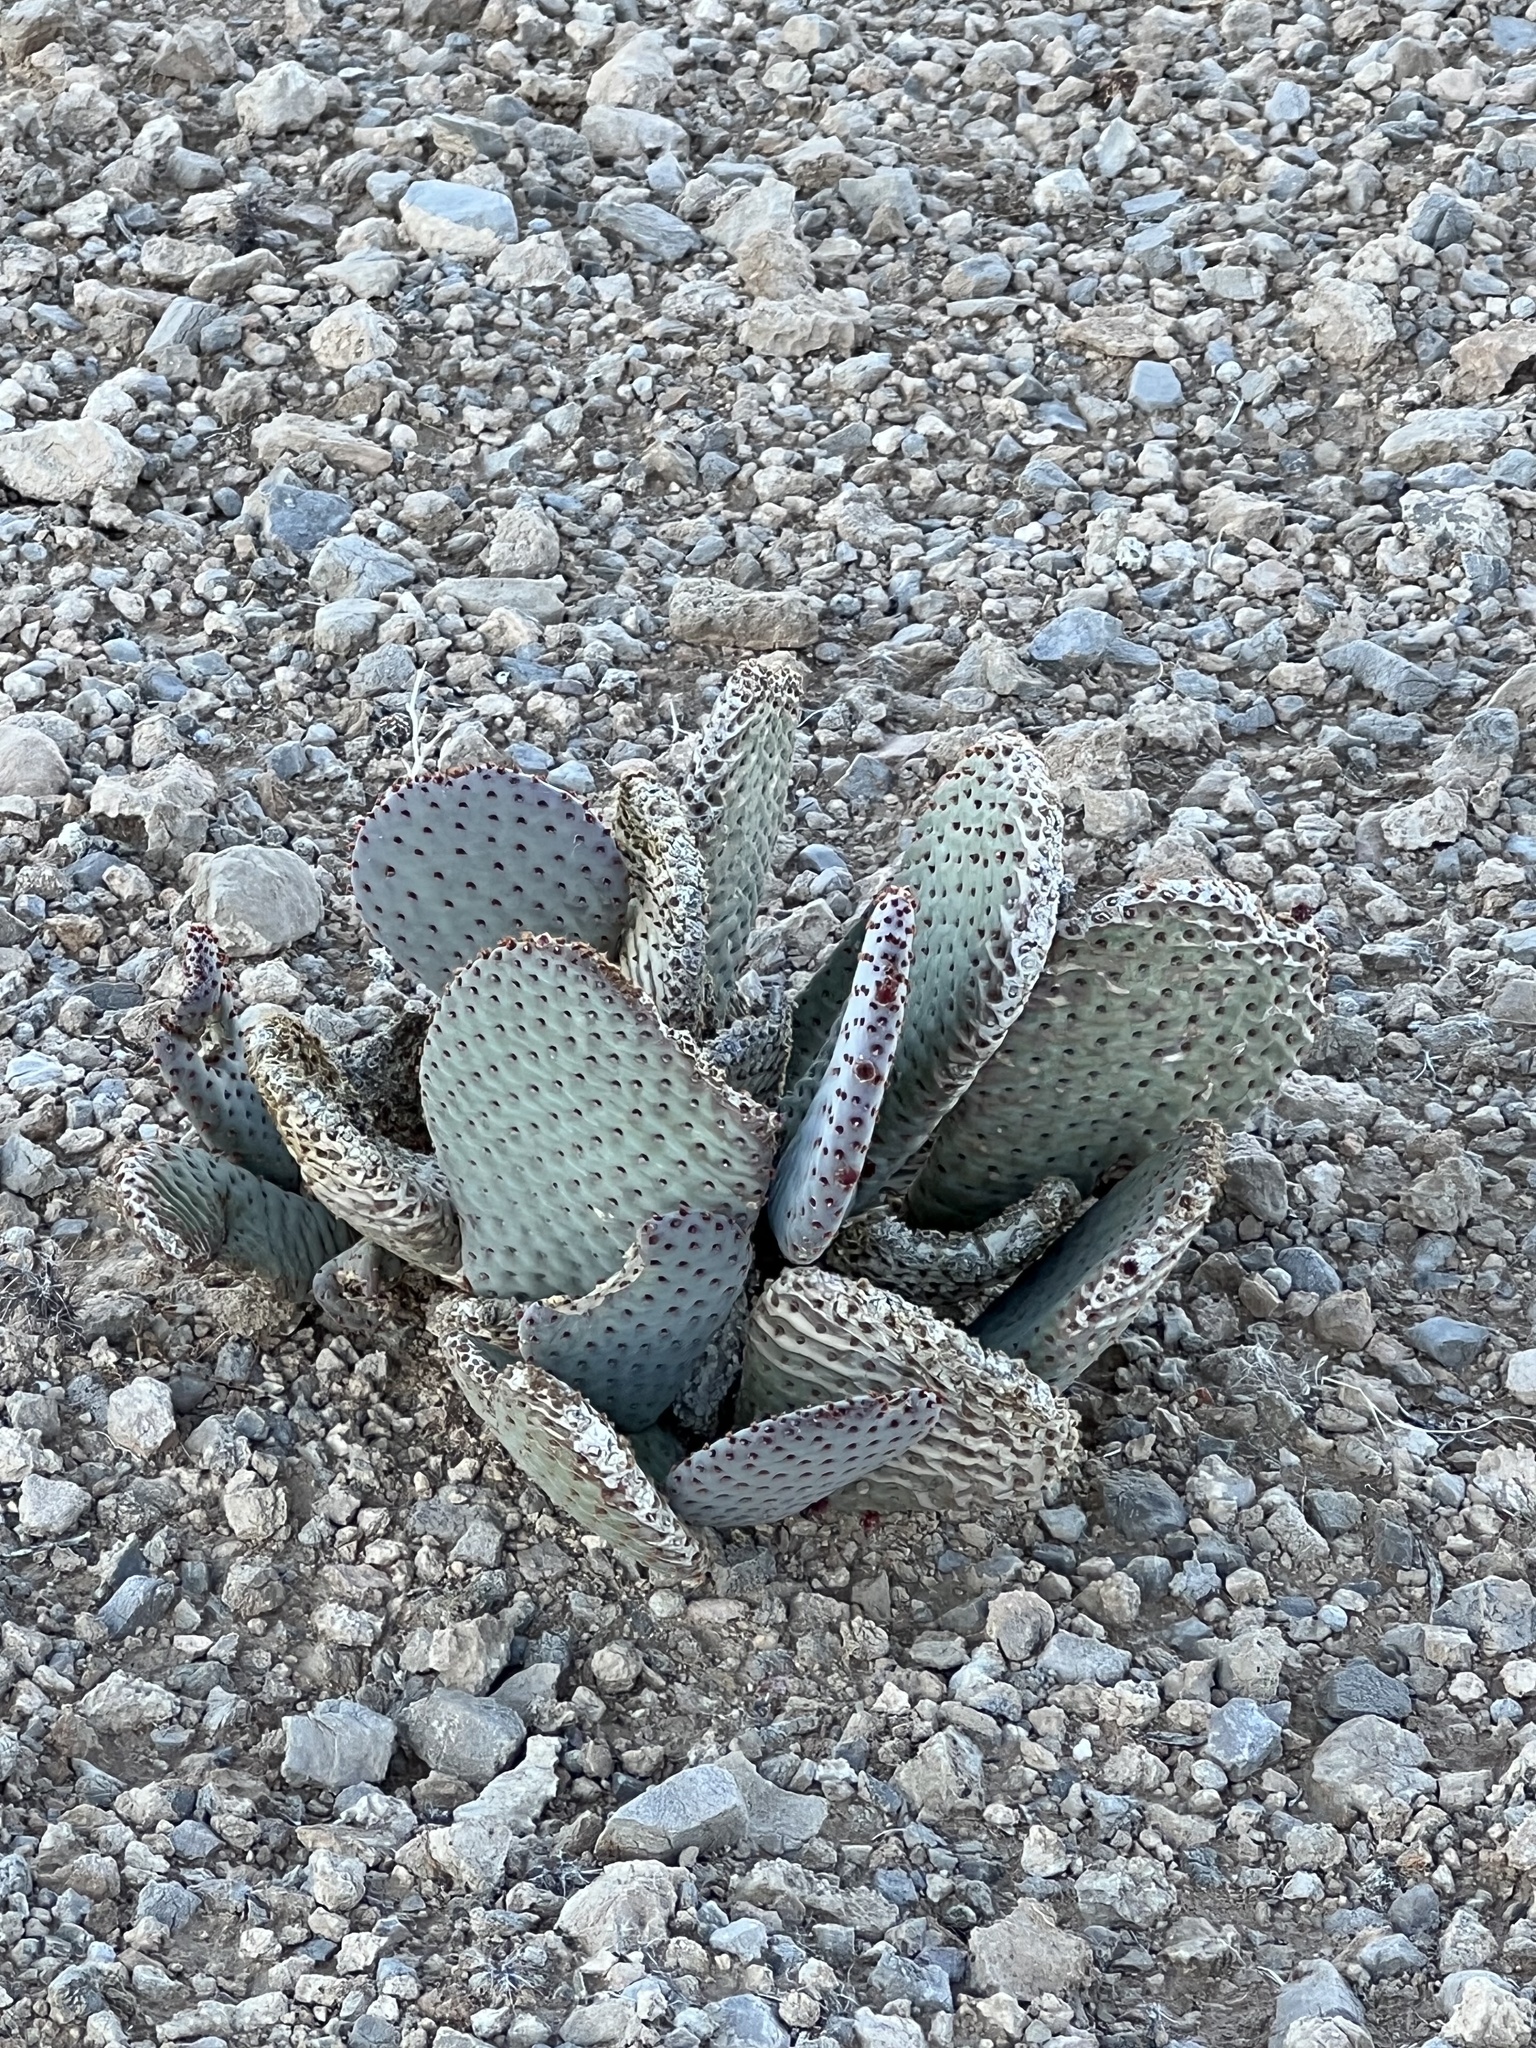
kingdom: Plantae
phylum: Tracheophyta
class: Magnoliopsida
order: Caryophyllales
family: Cactaceae
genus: Opuntia
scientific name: Opuntia basilaris
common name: Beavertail prickly-pear
